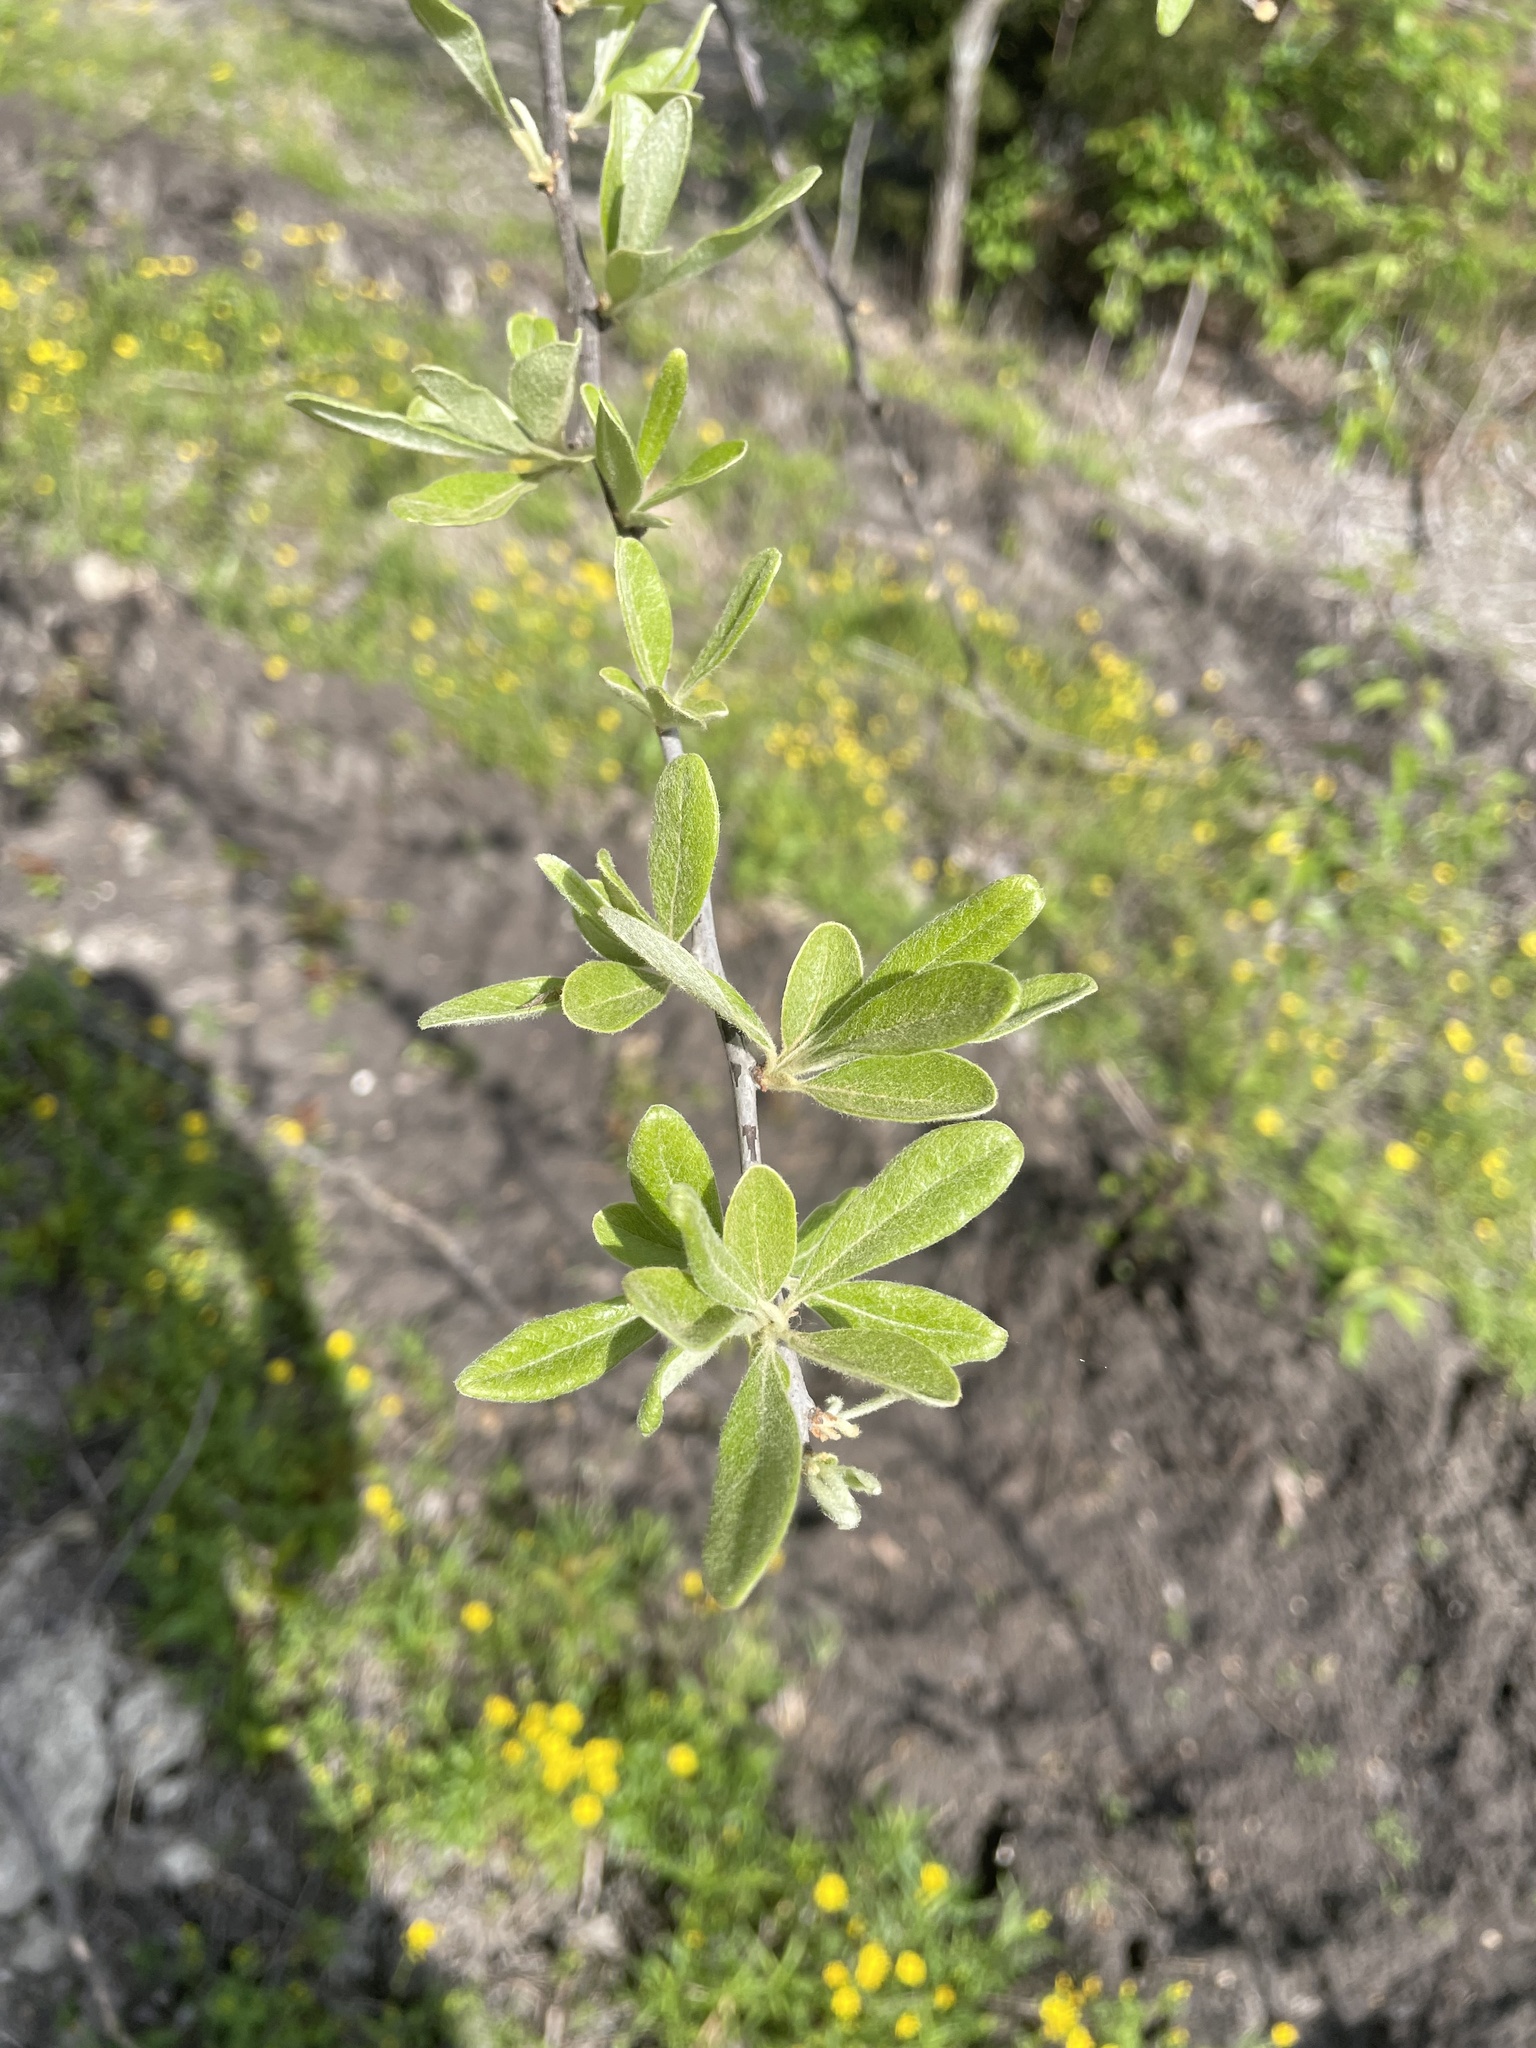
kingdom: Plantae
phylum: Tracheophyta
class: Magnoliopsida
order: Ericales
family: Sapotaceae
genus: Sideroxylon
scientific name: Sideroxylon lanuginosum
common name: Chittamwood
